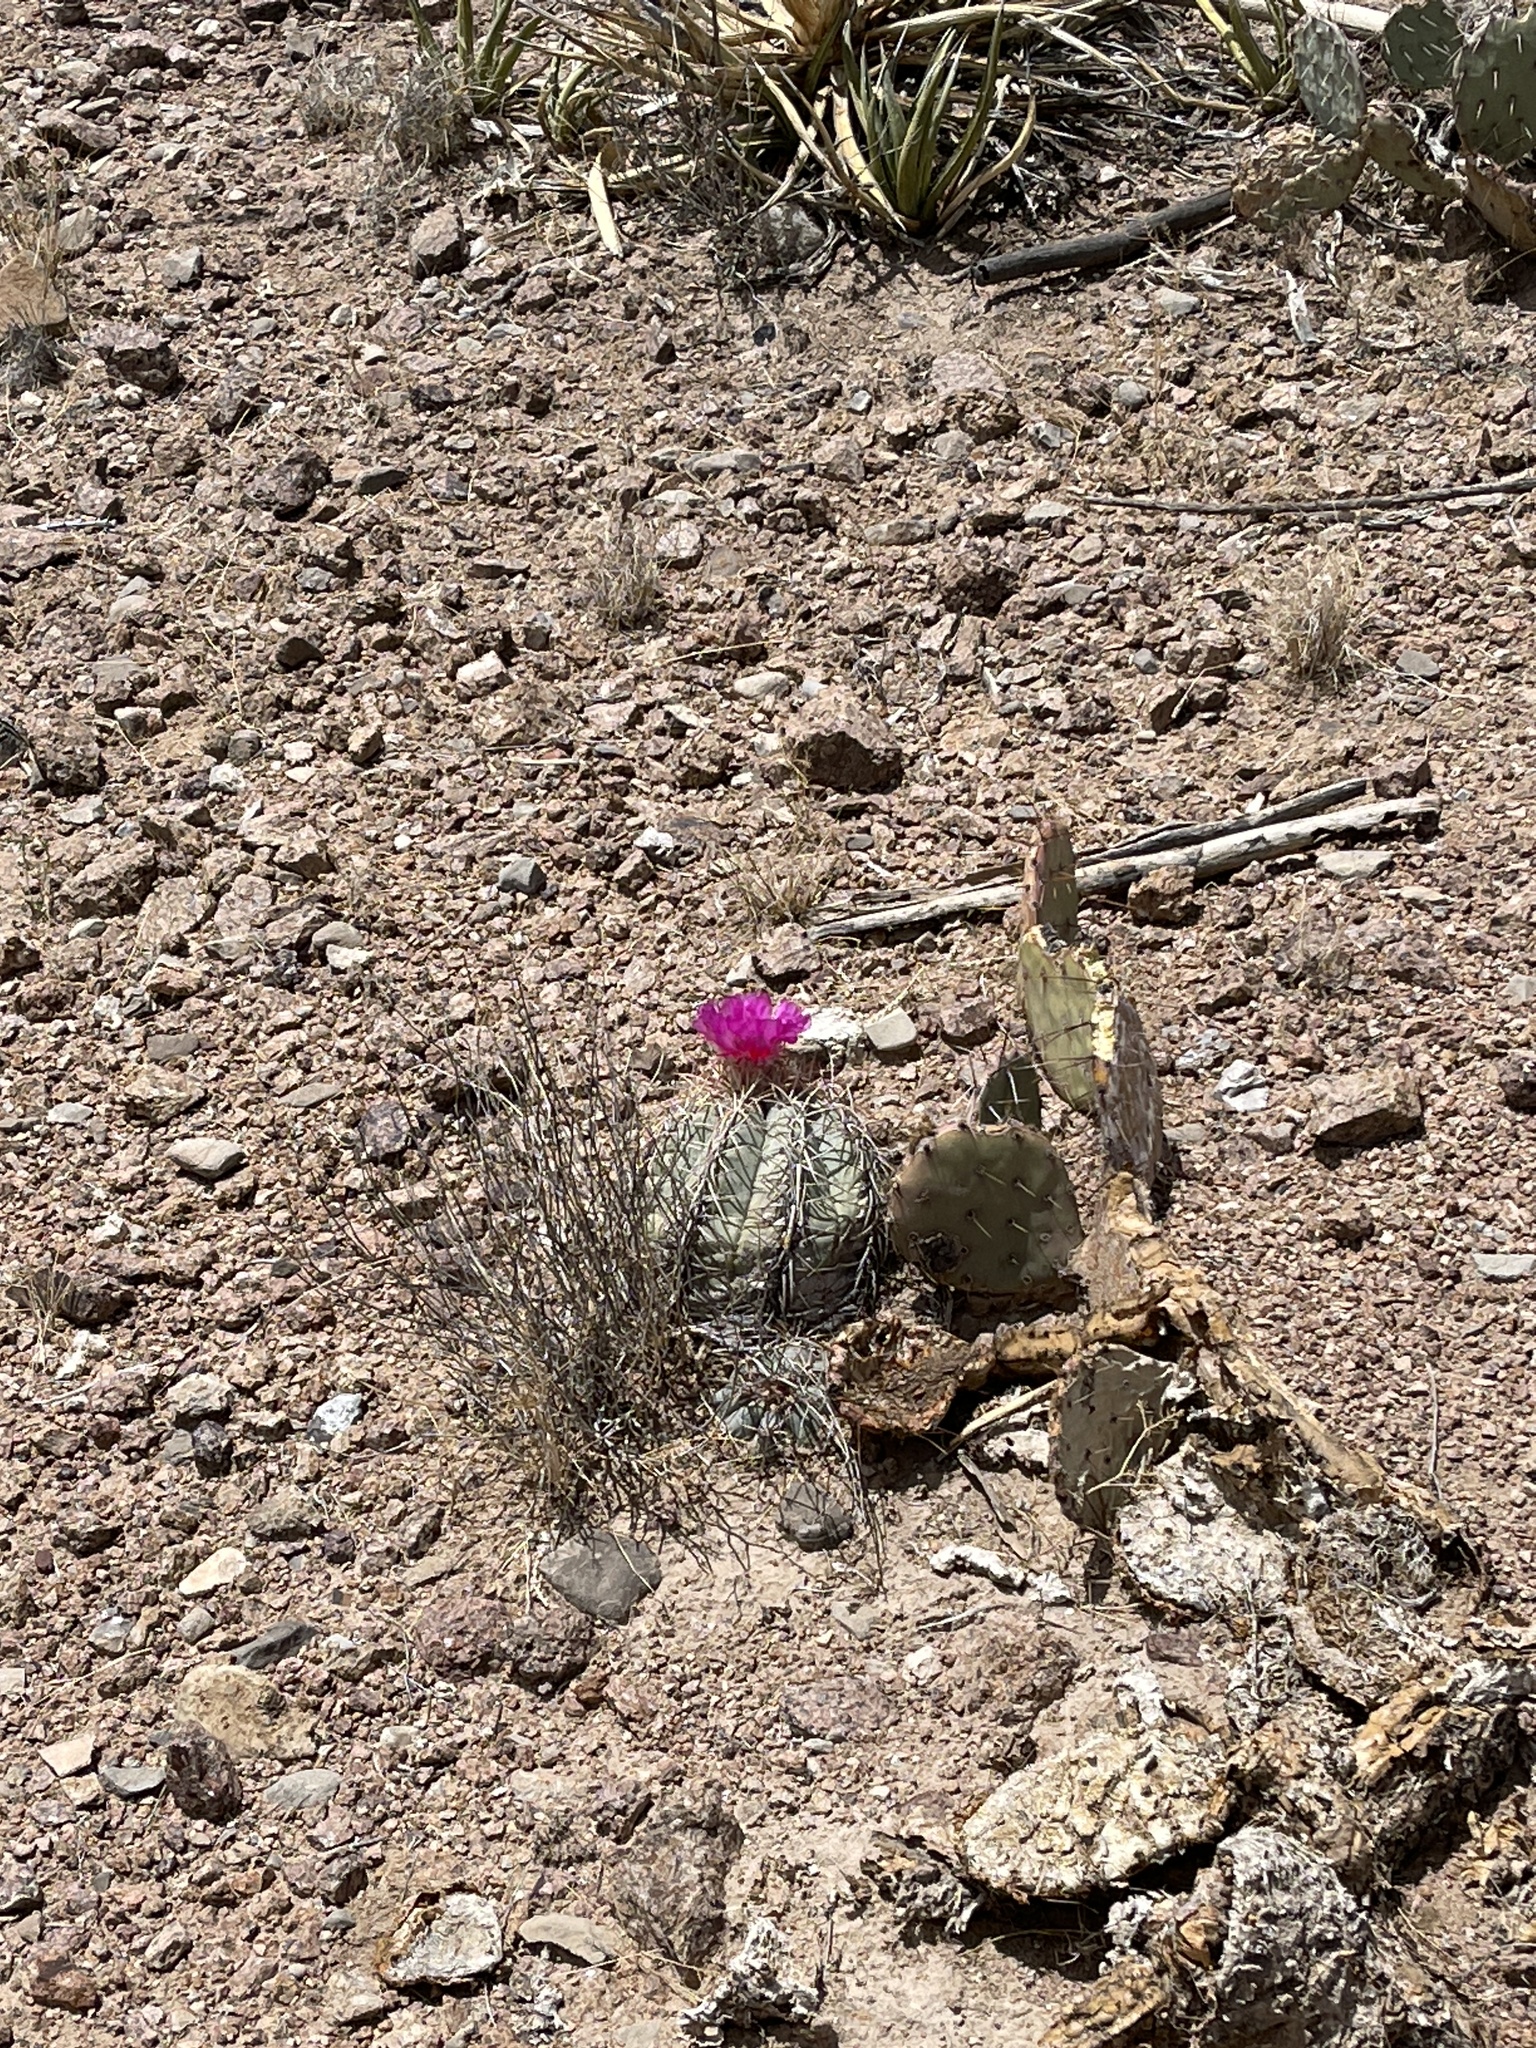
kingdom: Plantae
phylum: Tracheophyta
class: Magnoliopsida
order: Caryophyllales
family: Cactaceae
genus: Echinocactus
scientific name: Echinocactus horizonthalonius
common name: Devilshead
